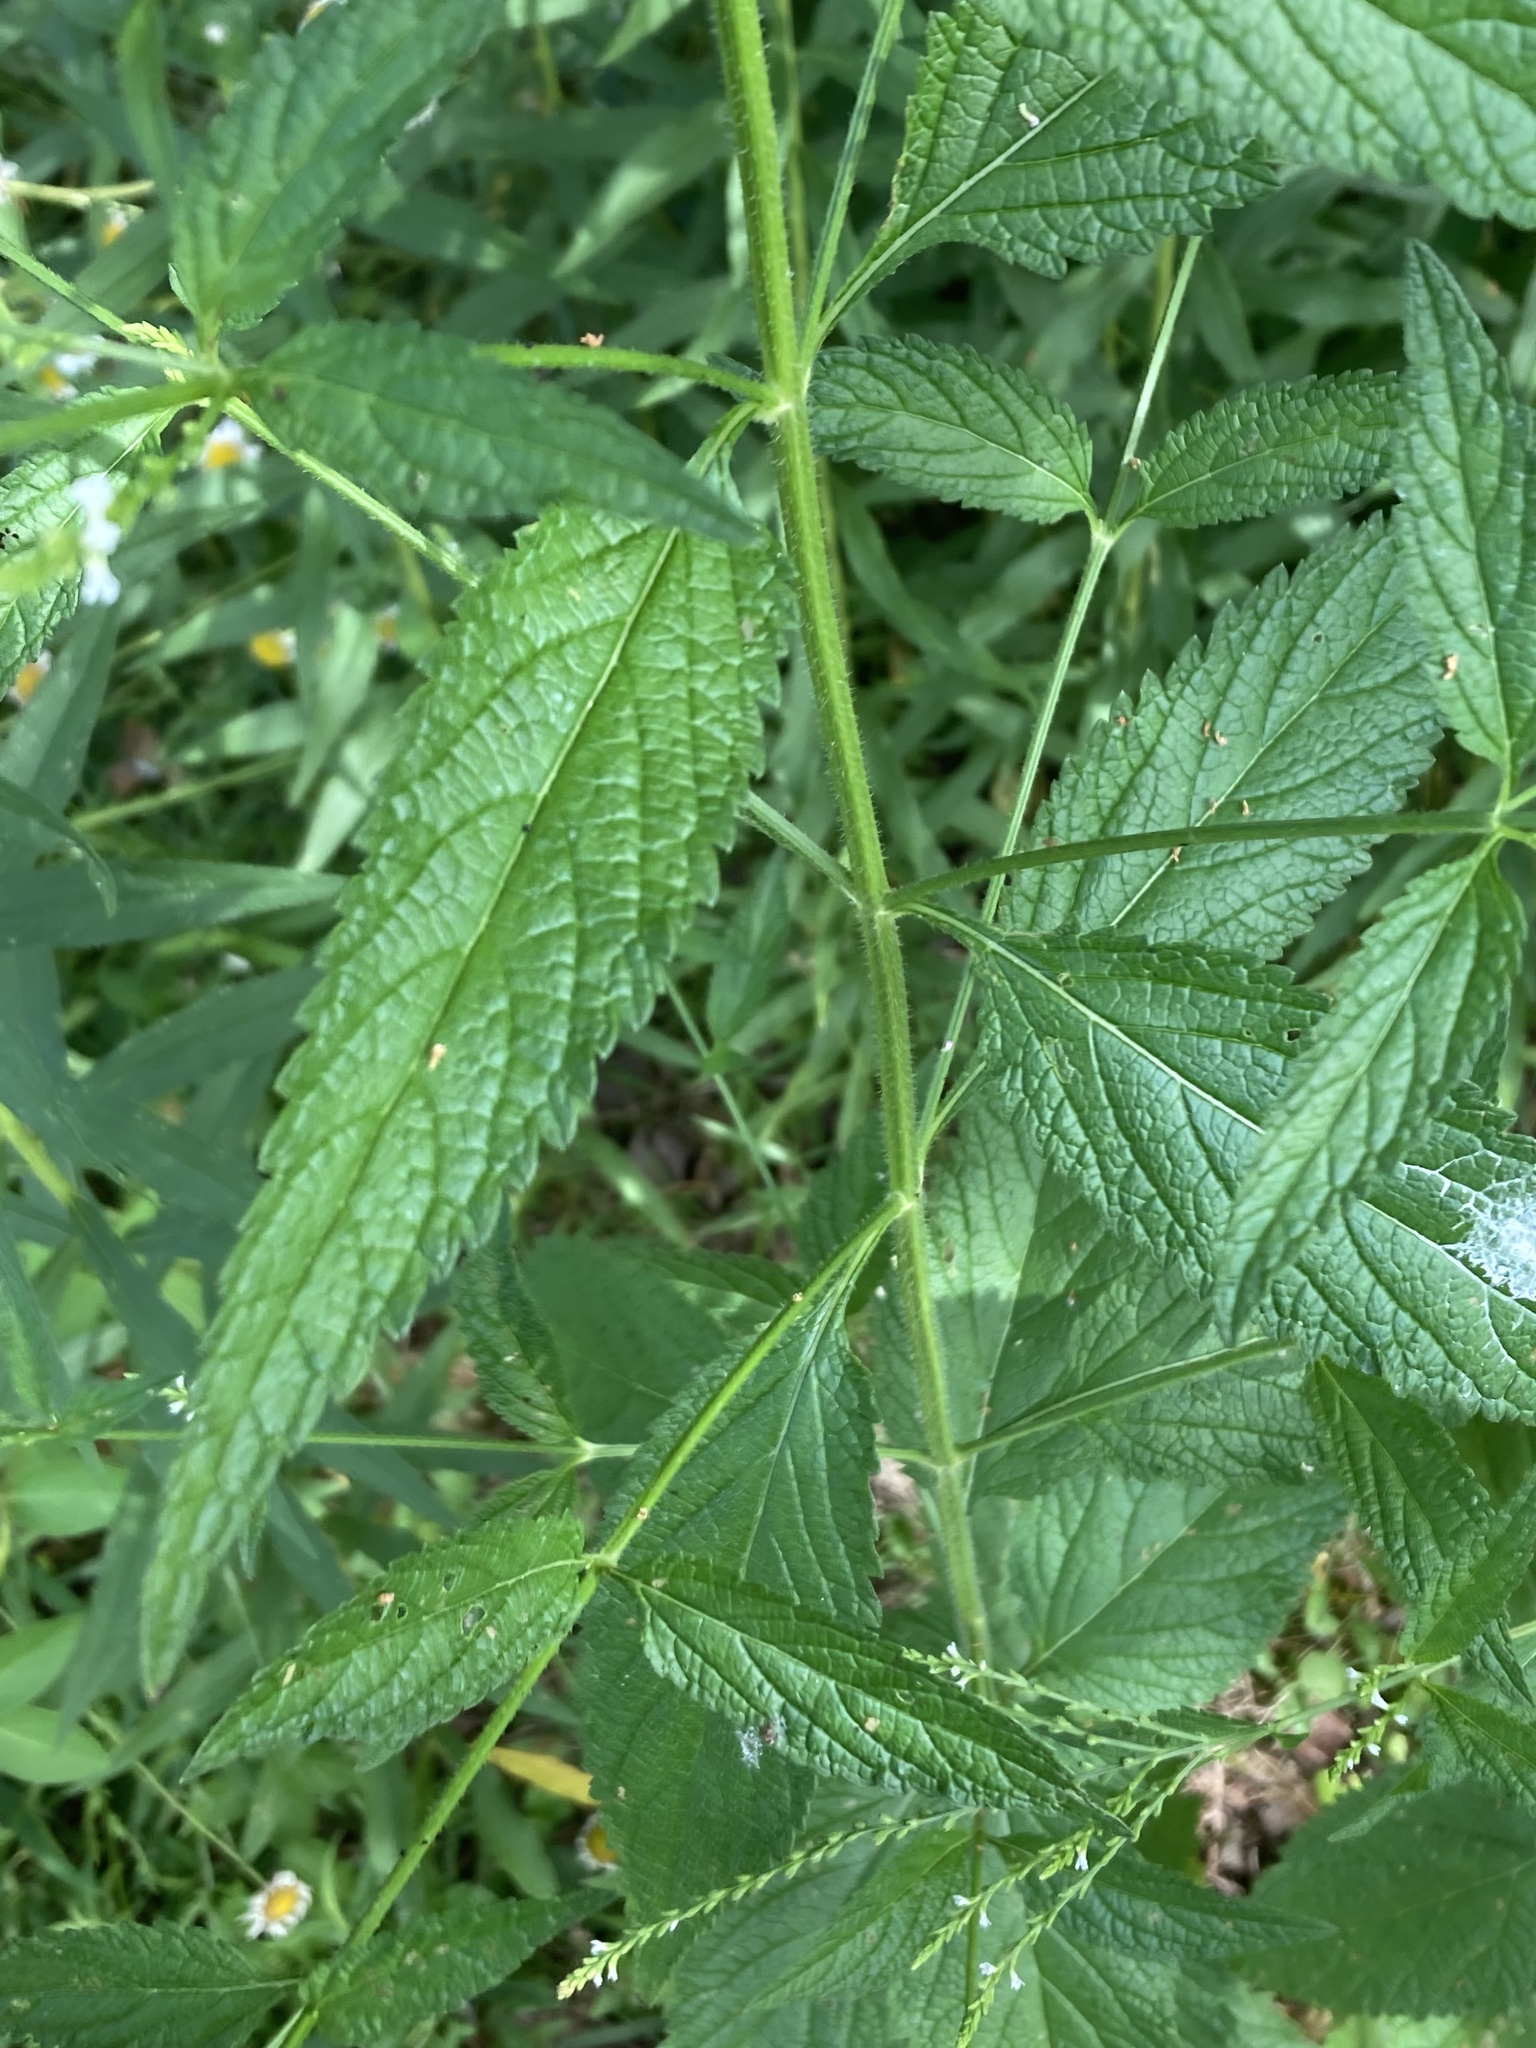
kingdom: Plantae
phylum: Tracheophyta
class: Magnoliopsida
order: Lamiales
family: Verbenaceae
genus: Verbena
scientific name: Verbena urticifolia
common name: Nettle-leaved vervain
